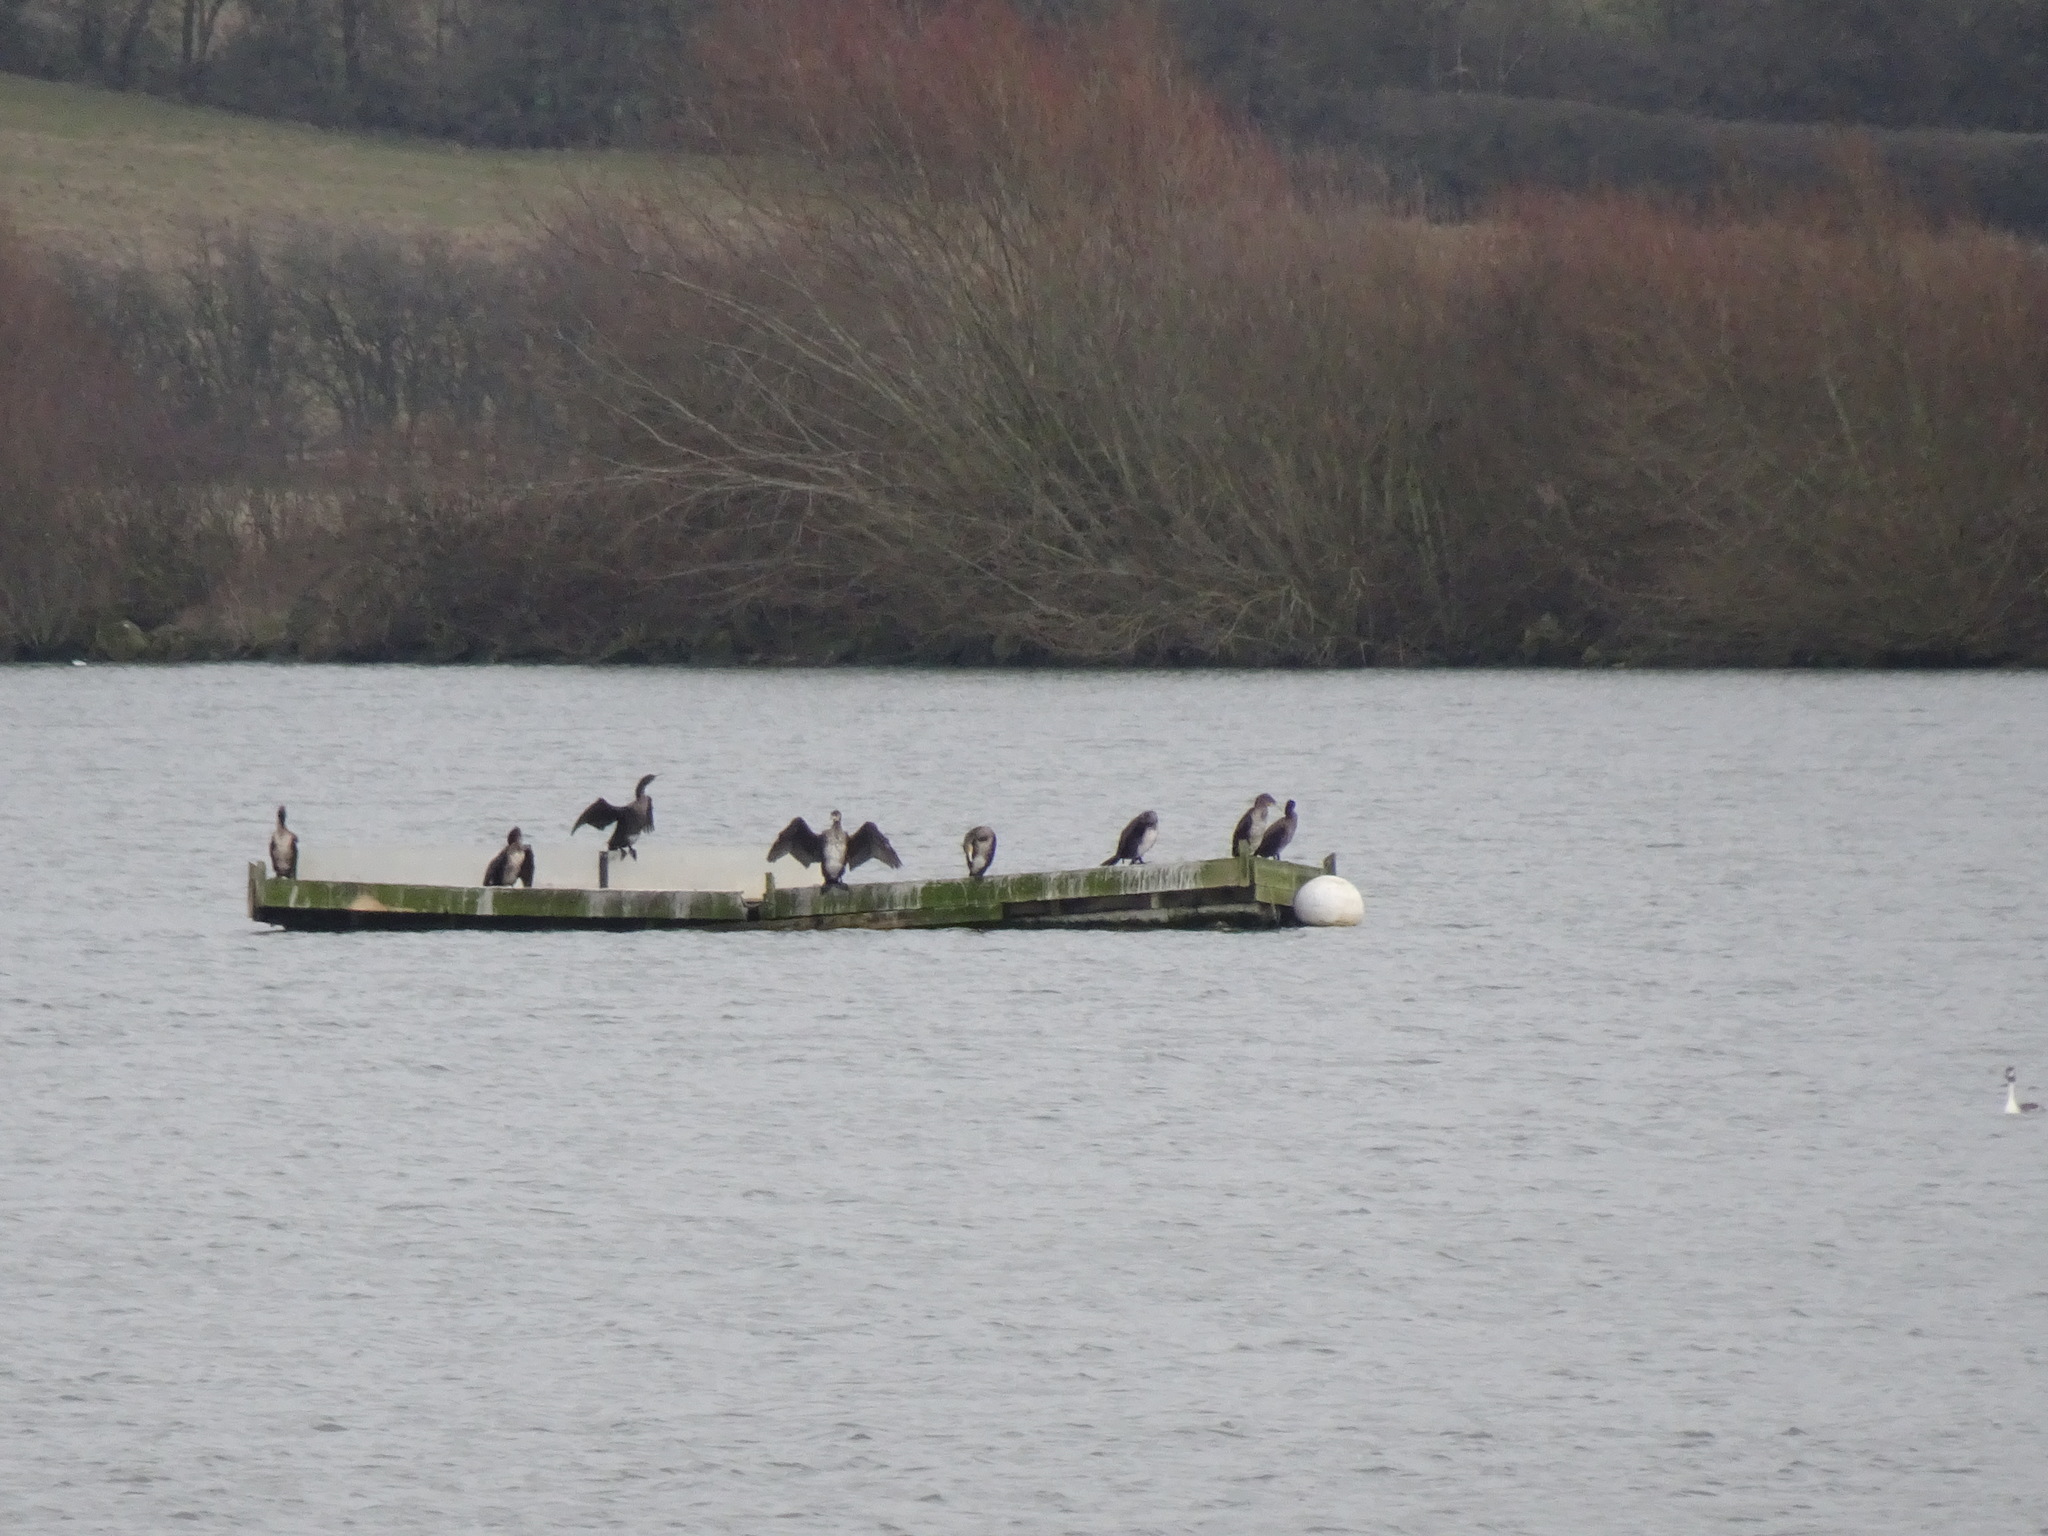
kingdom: Animalia
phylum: Chordata
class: Aves
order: Suliformes
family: Phalacrocoracidae
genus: Phalacrocorax
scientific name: Phalacrocorax carbo
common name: Great cormorant
